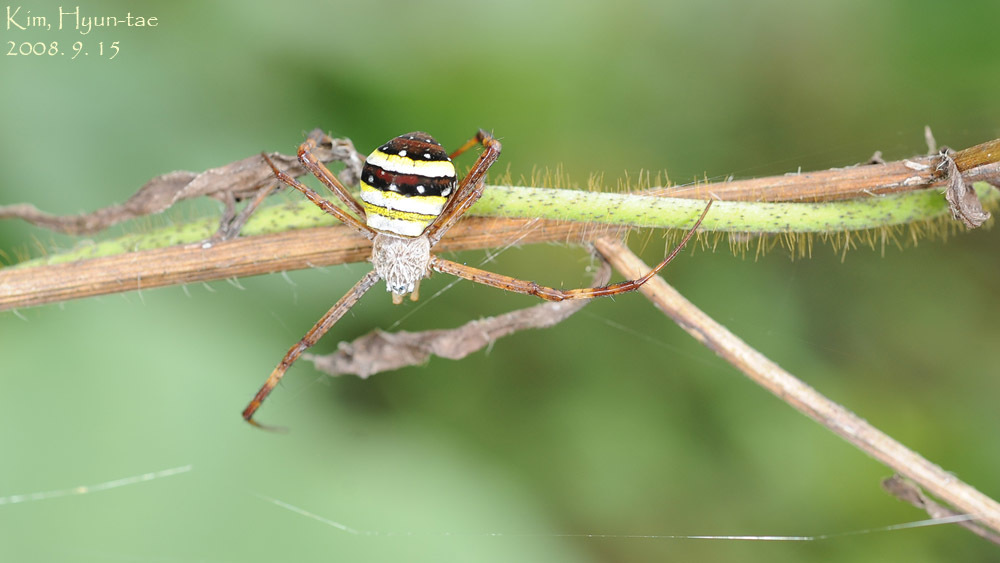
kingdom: Animalia
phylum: Arthropoda
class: Arachnida
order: Araneae
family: Araneidae
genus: Argiope
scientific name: Argiope minuta
